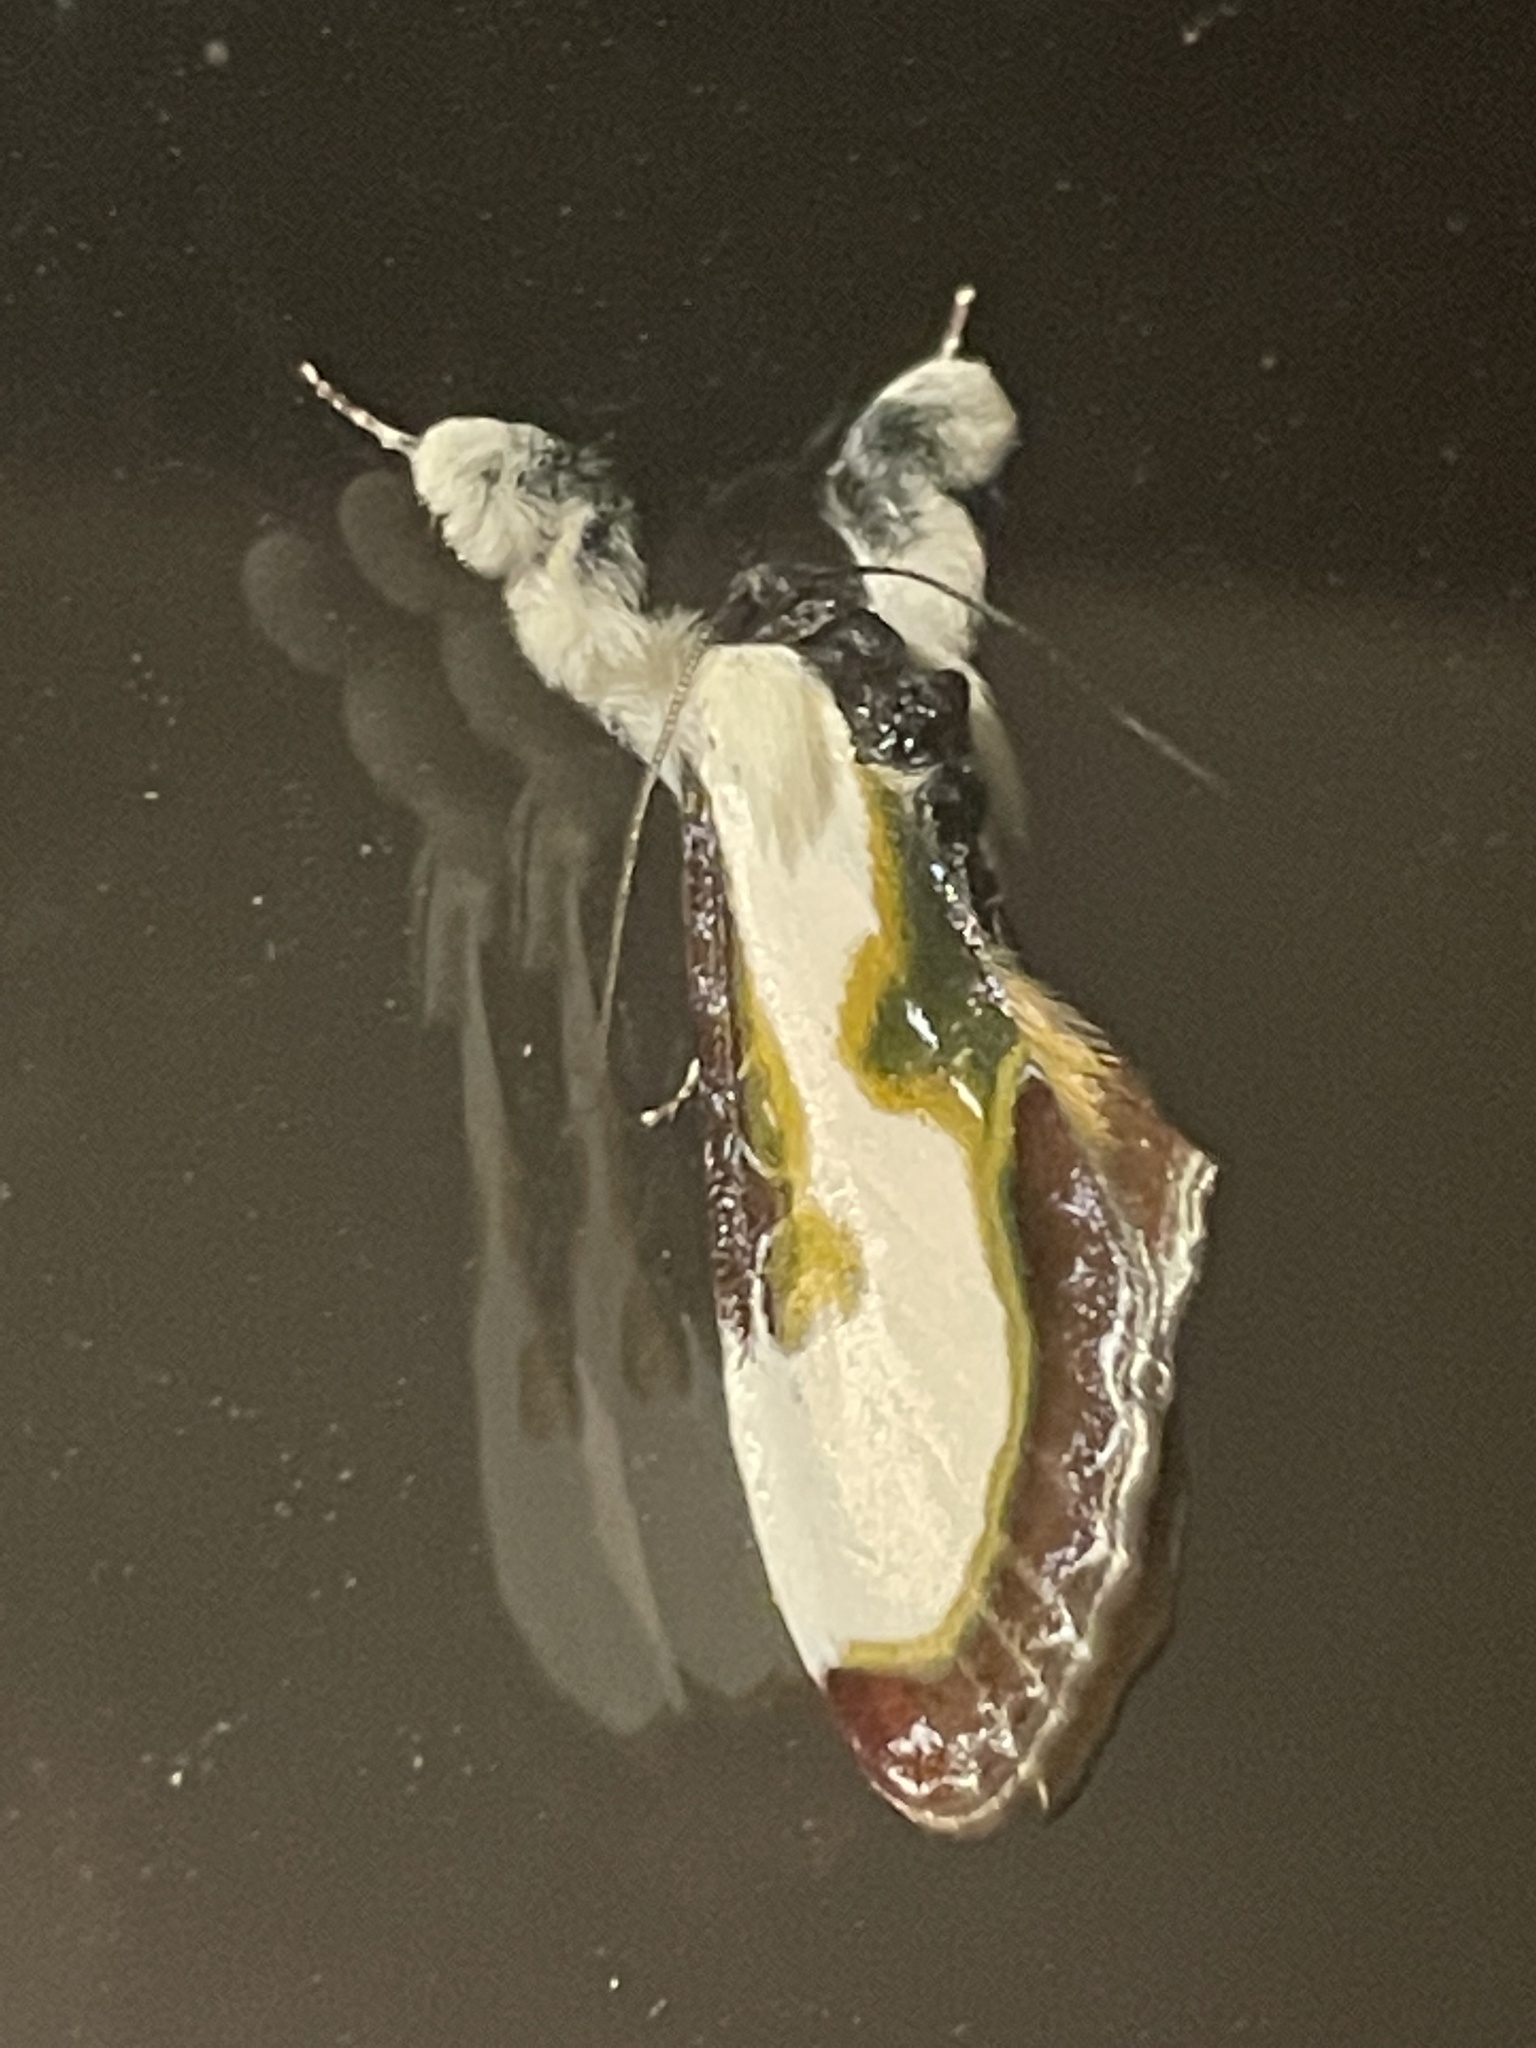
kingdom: Animalia
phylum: Arthropoda
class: Insecta
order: Lepidoptera
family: Noctuidae
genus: Eudryas
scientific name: Eudryas grata
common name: Beautiful wood-nymph
